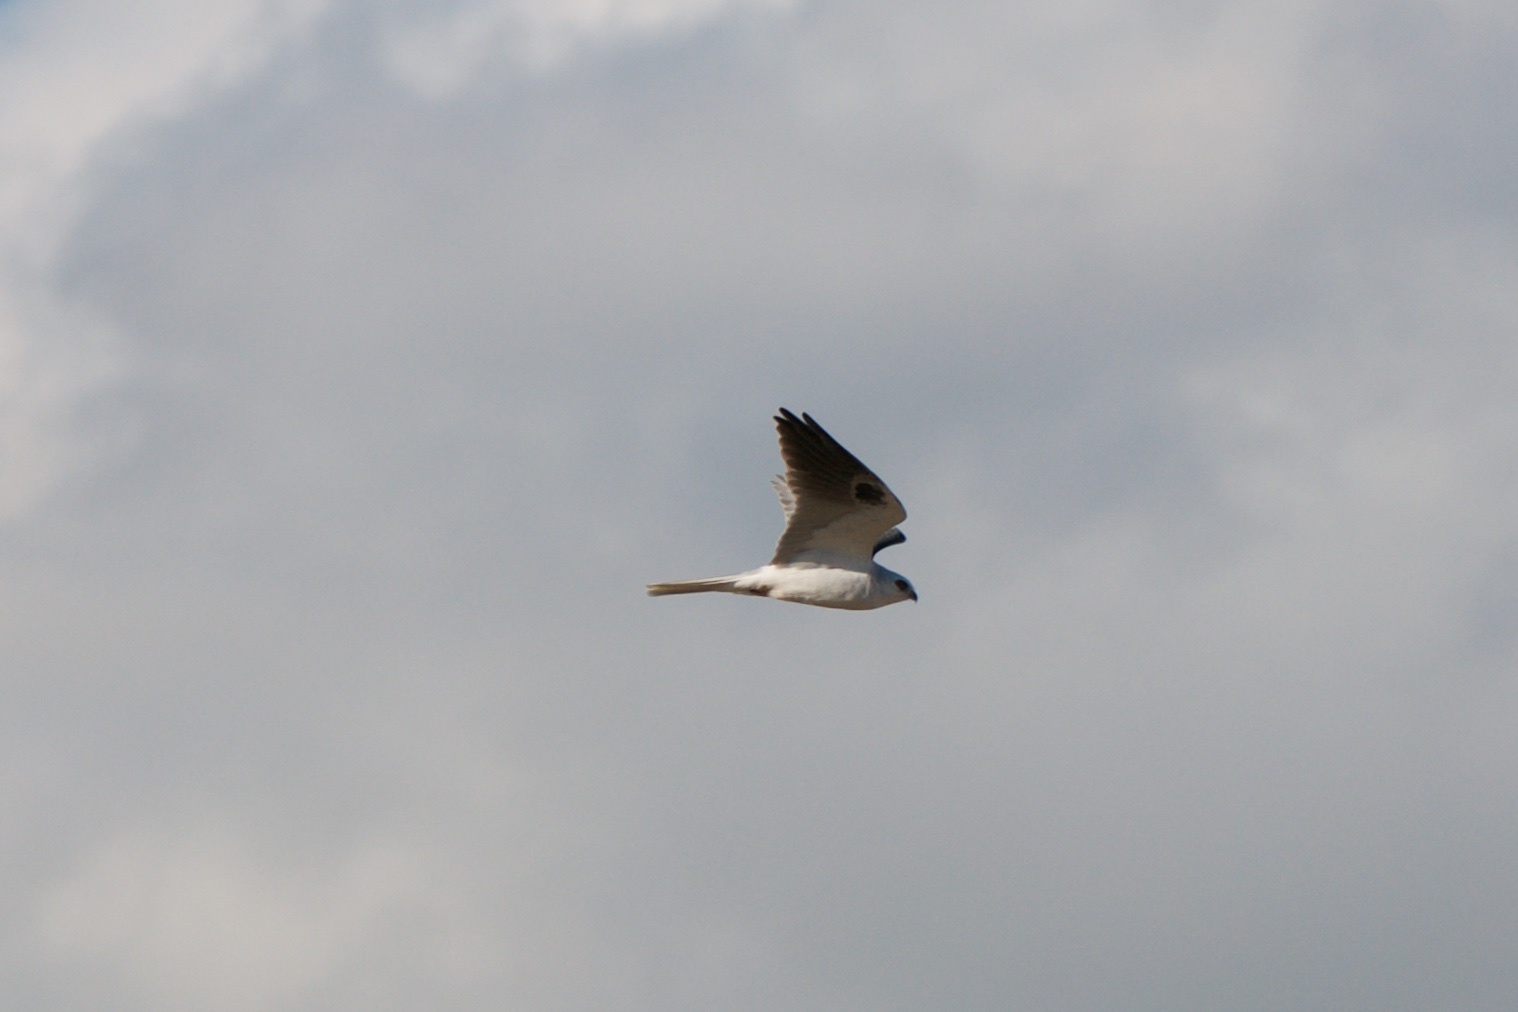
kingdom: Animalia
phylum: Chordata
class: Aves
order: Accipitriformes
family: Accipitridae
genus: Elanus
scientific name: Elanus leucurus
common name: White-tailed kite
